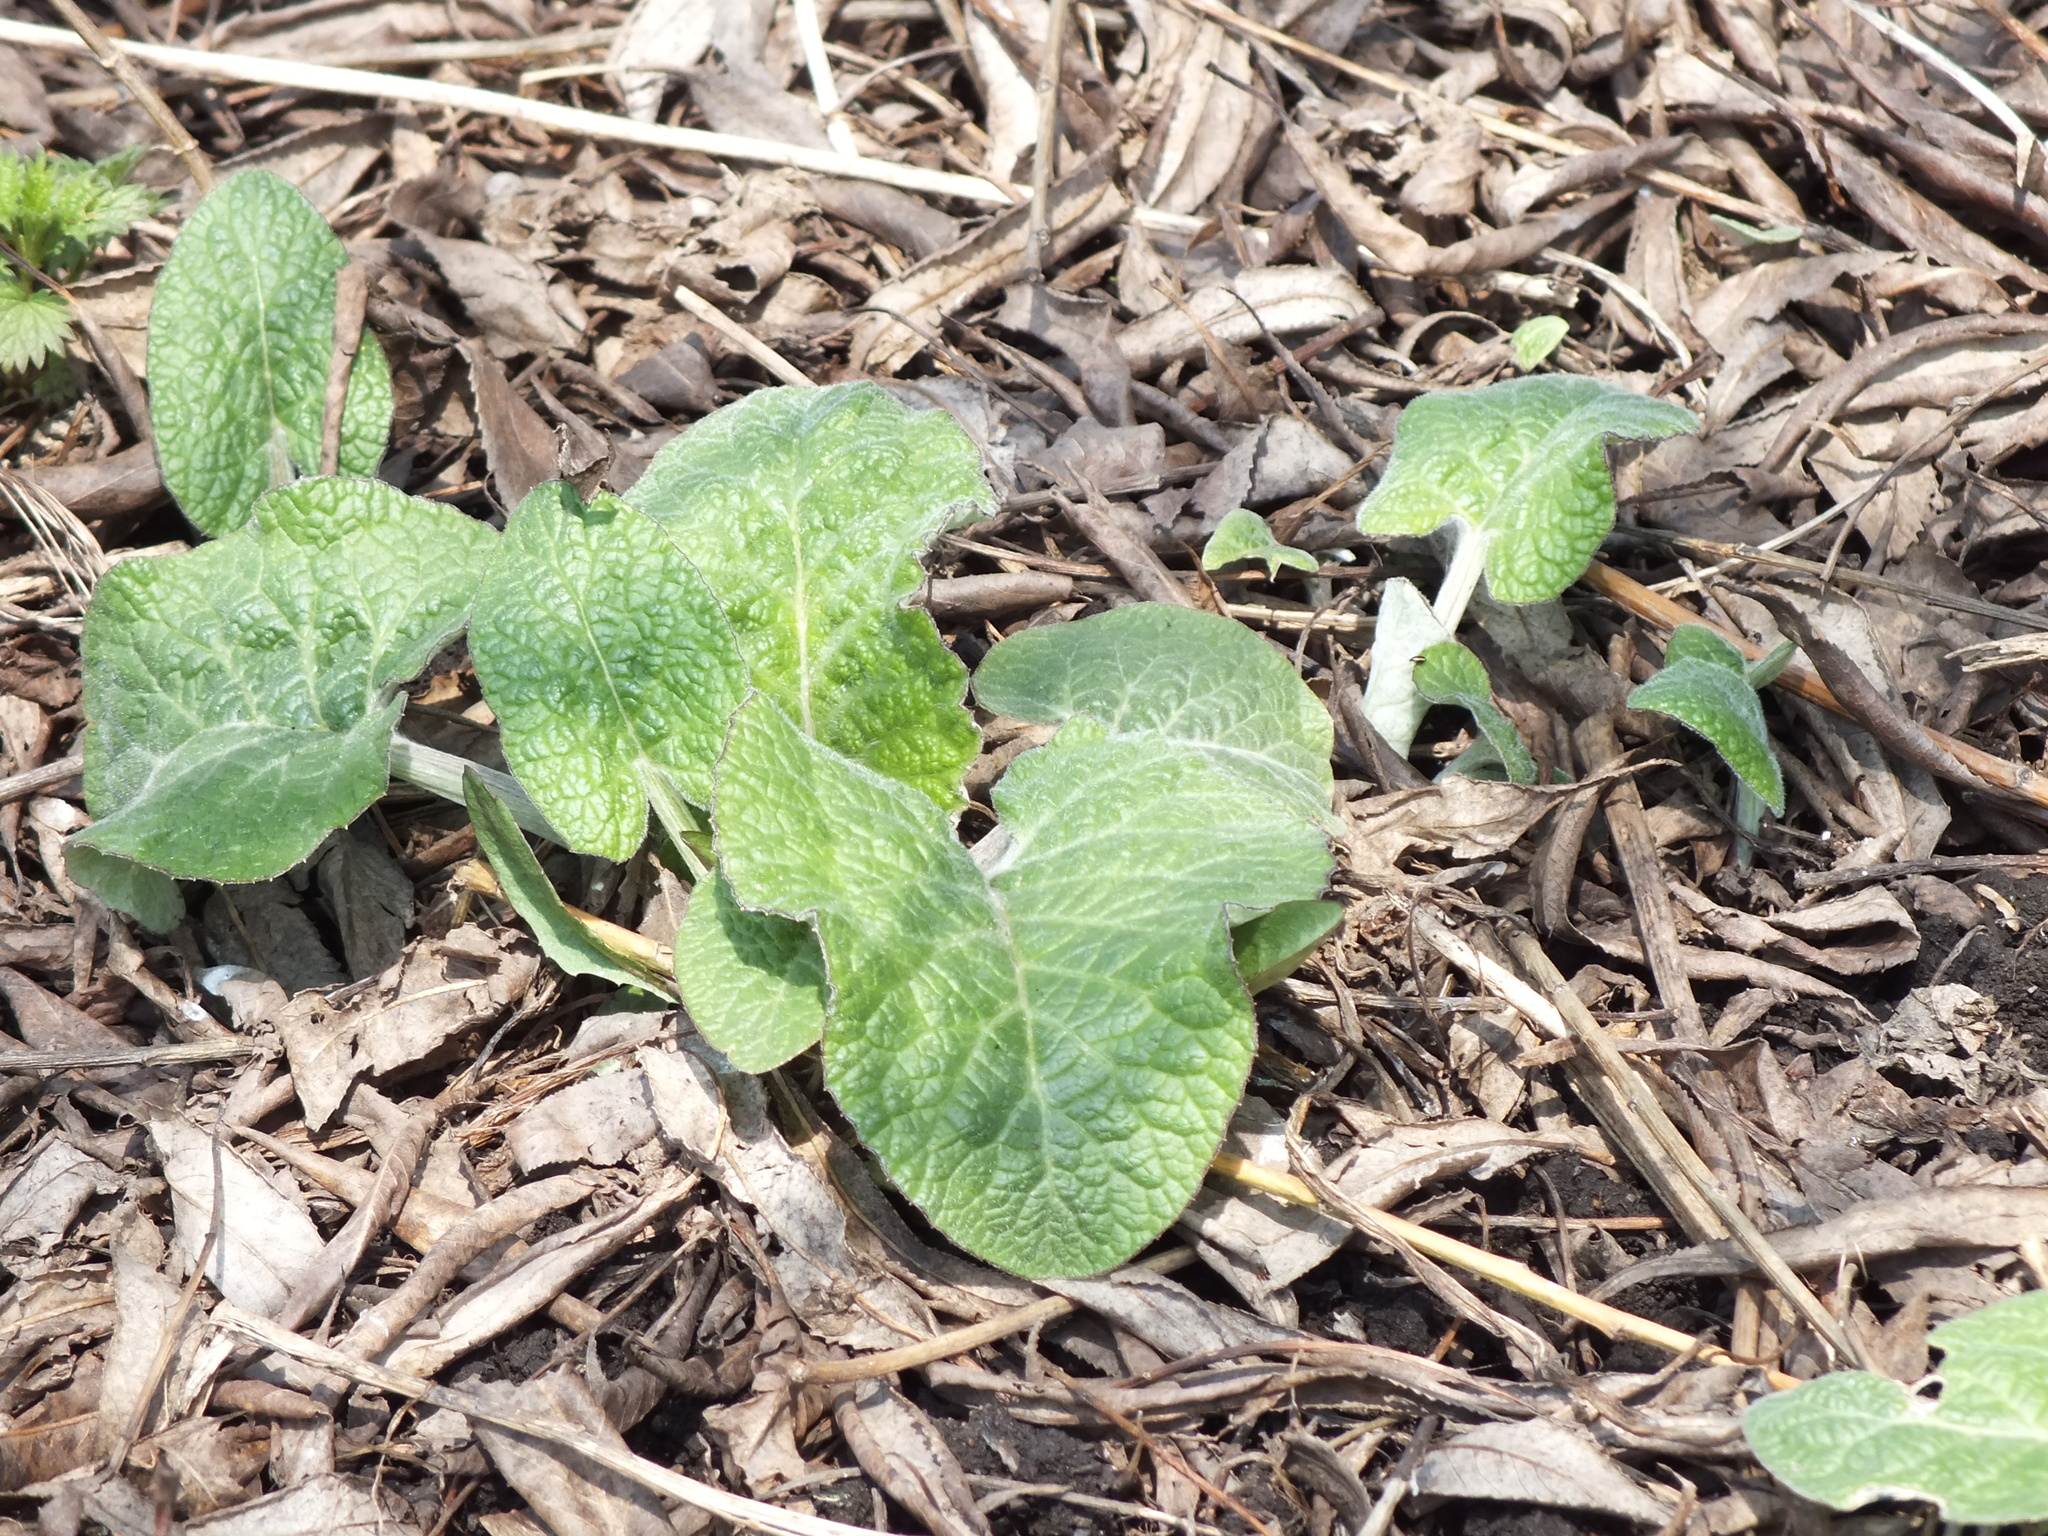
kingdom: Plantae
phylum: Tracheophyta
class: Magnoliopsida
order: Asterales
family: Asteraceae
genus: Arctium
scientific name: Arctium tomentosum
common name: Woolly burdock
